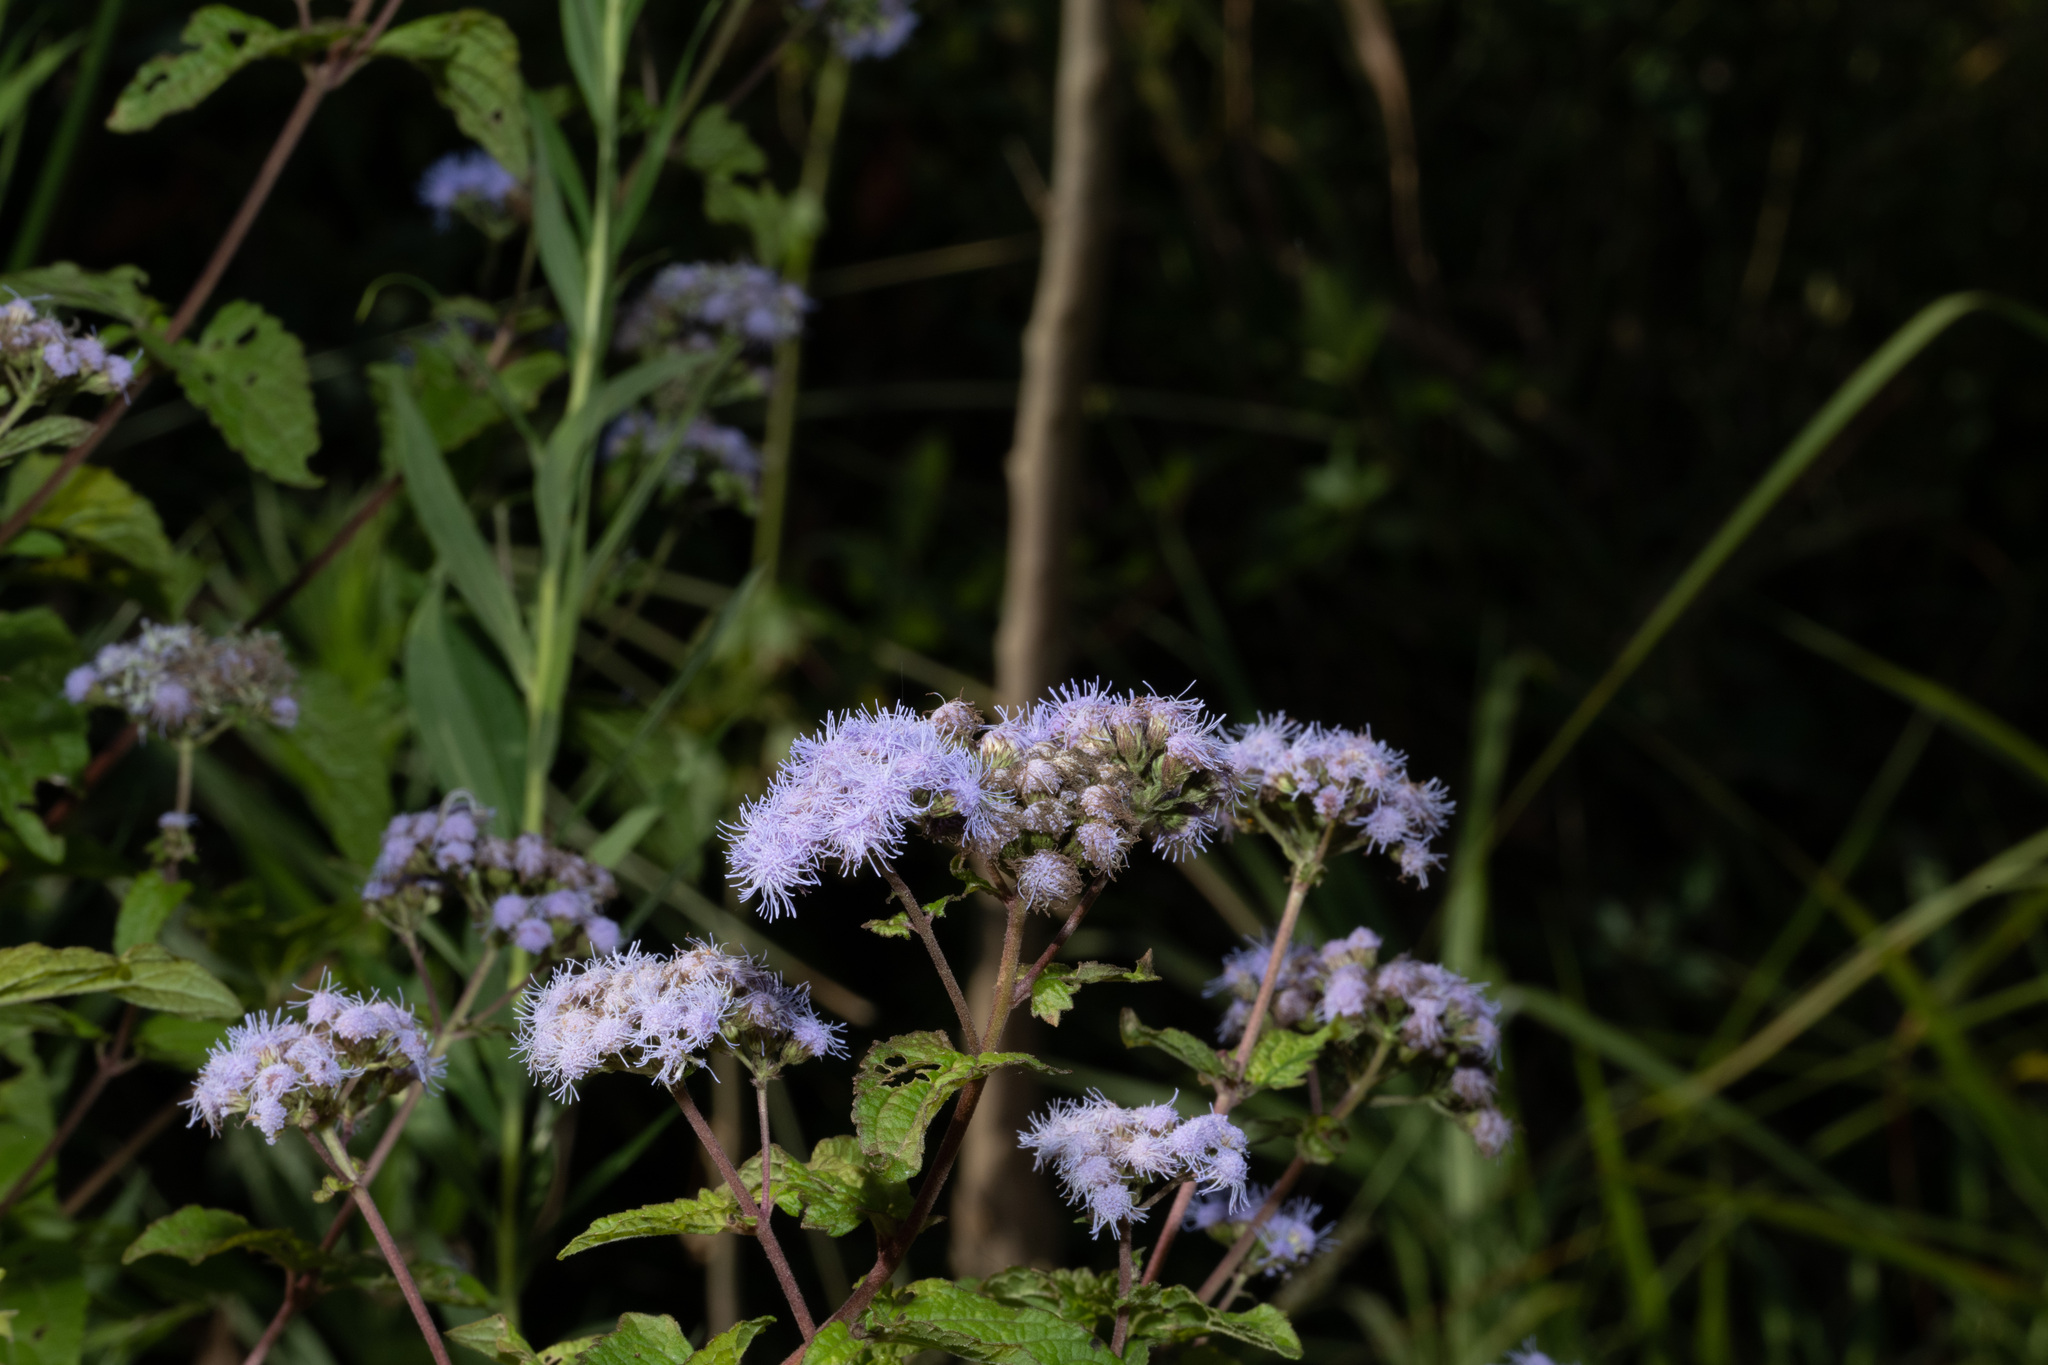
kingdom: Plantae
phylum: Tracheophyta
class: Magnoliopsida
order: Asterales
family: Asteraceae
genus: Conoclinium
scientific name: Conoclinium coelestinum
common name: Blue mistflower
